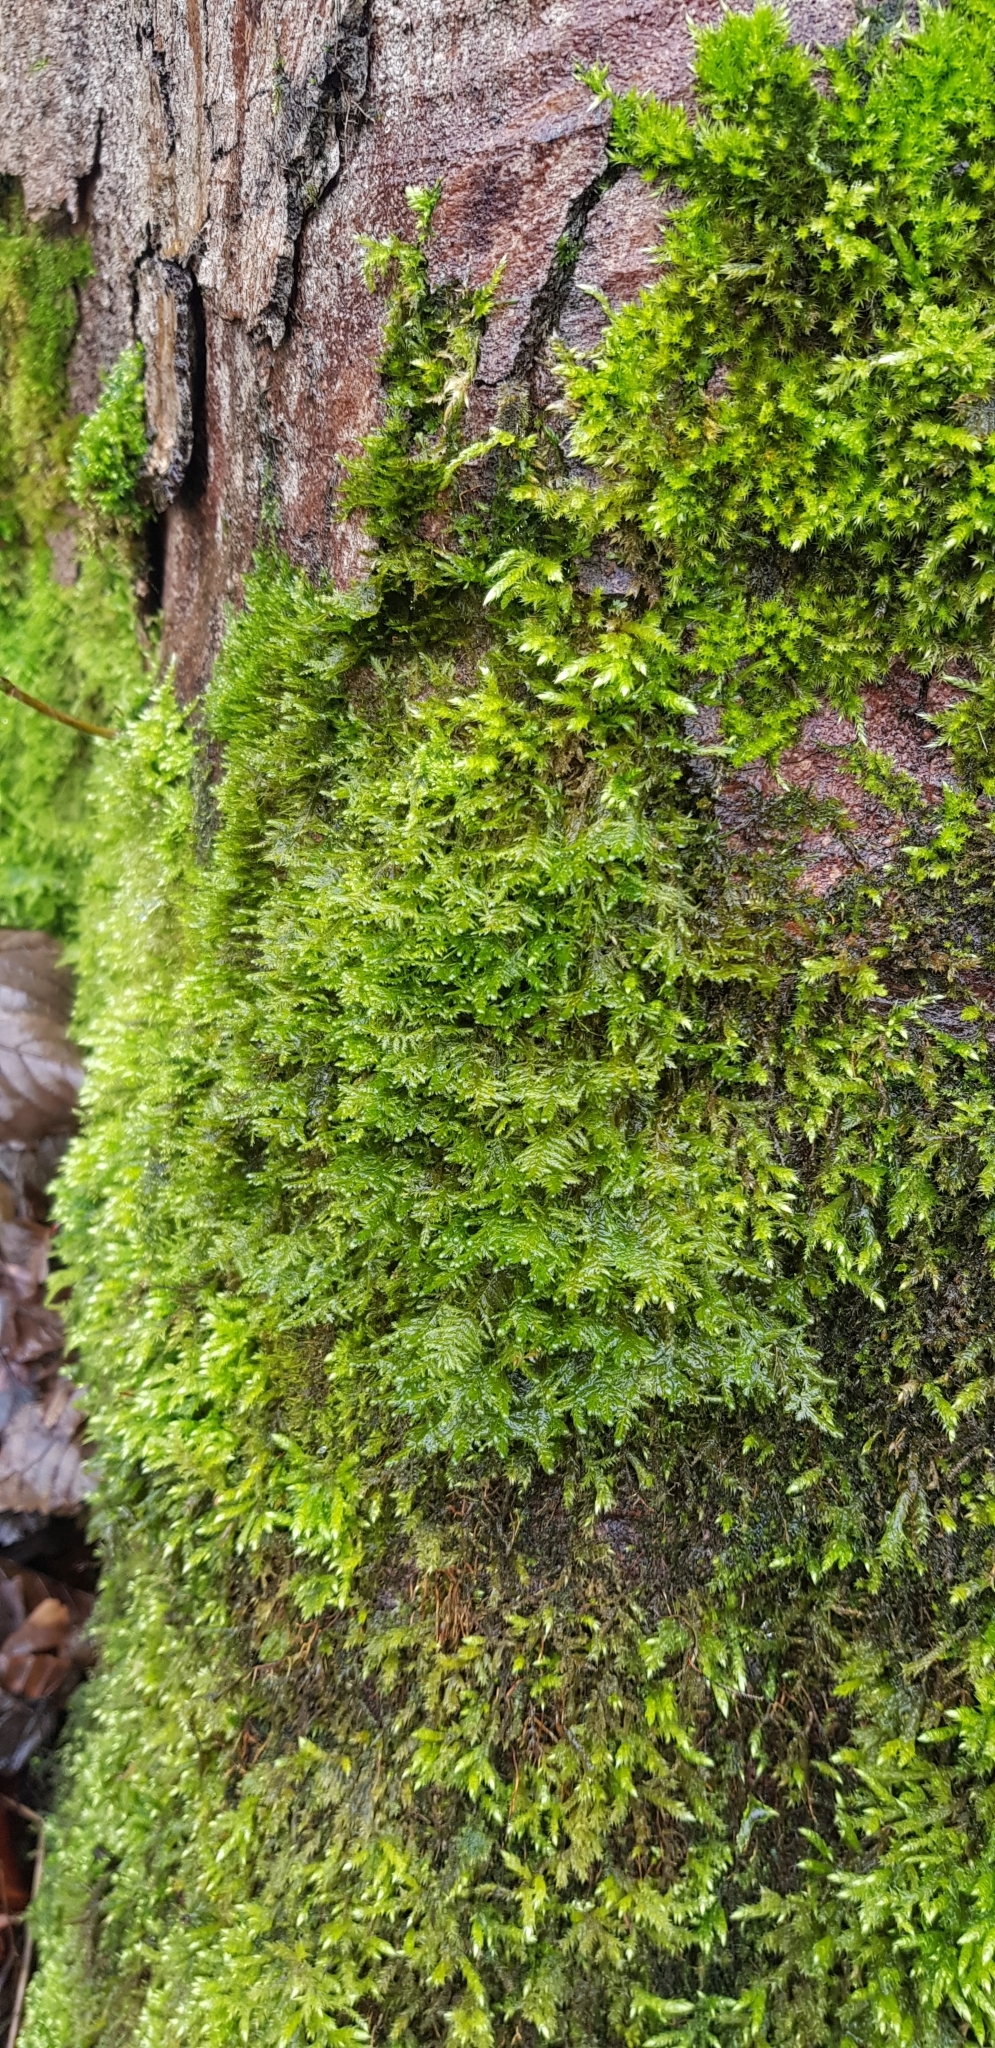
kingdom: Plantae
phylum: Bryophyta
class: Bryopsida
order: Hypnales
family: Neckeraceae
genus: Alleniella
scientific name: Alleniella complanata
